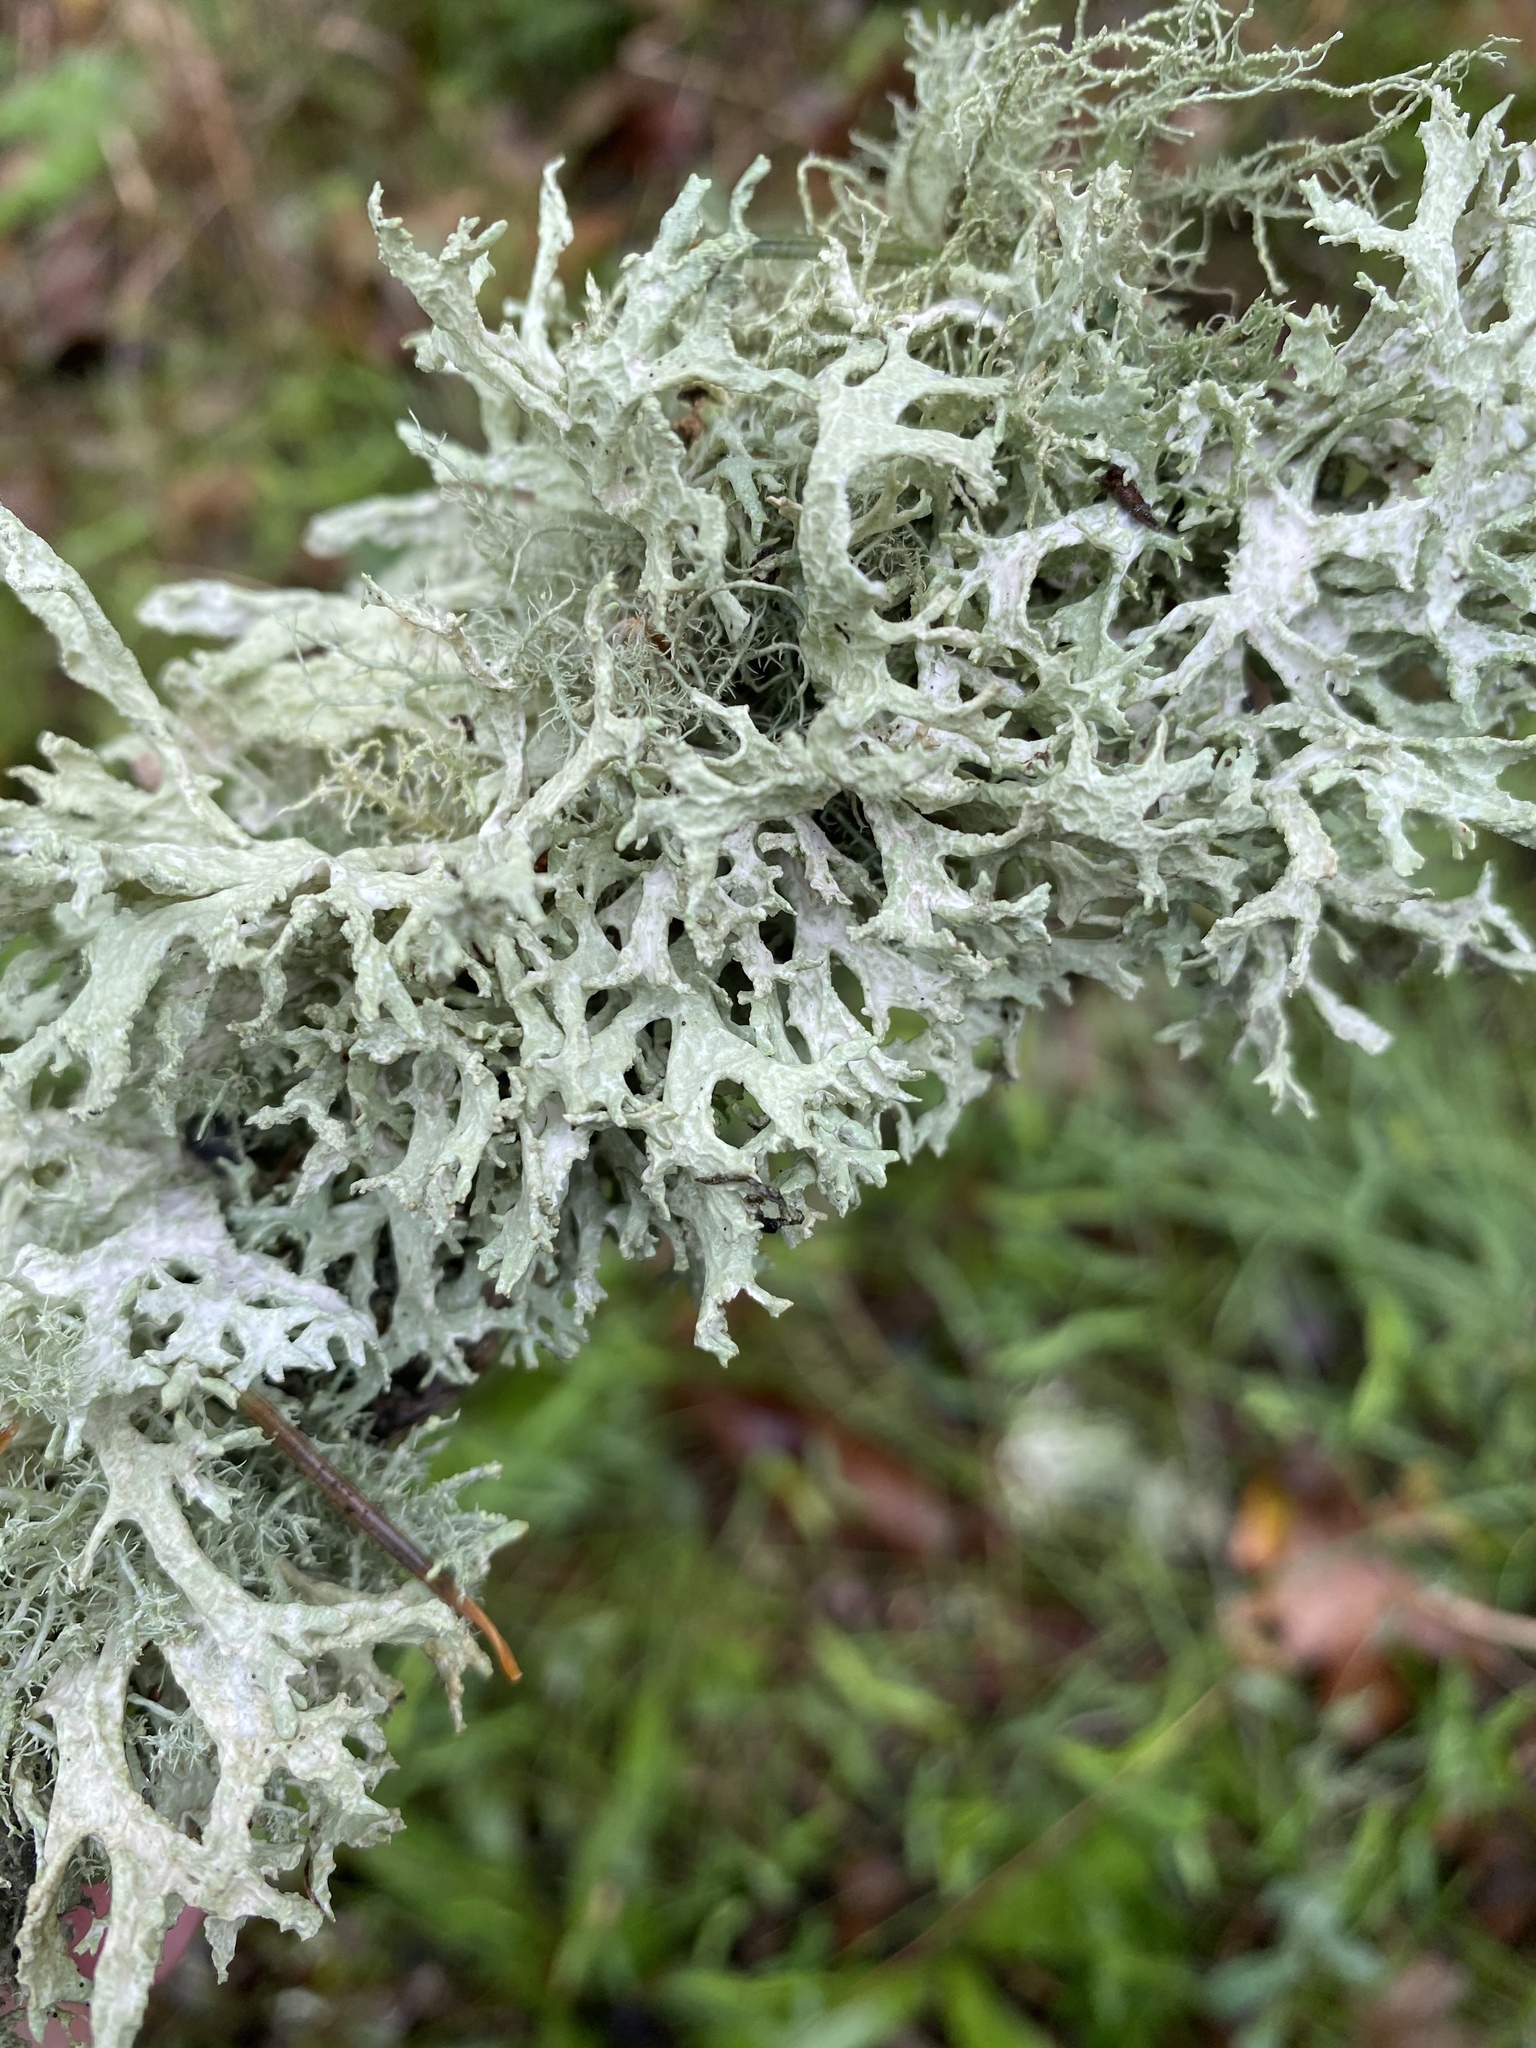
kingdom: Fungi
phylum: Ascomycota
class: Lecanoromycetes
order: Lecanorales
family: Parmeliaceae
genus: Evernia
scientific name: Evernia prunastri
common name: Oak moss
